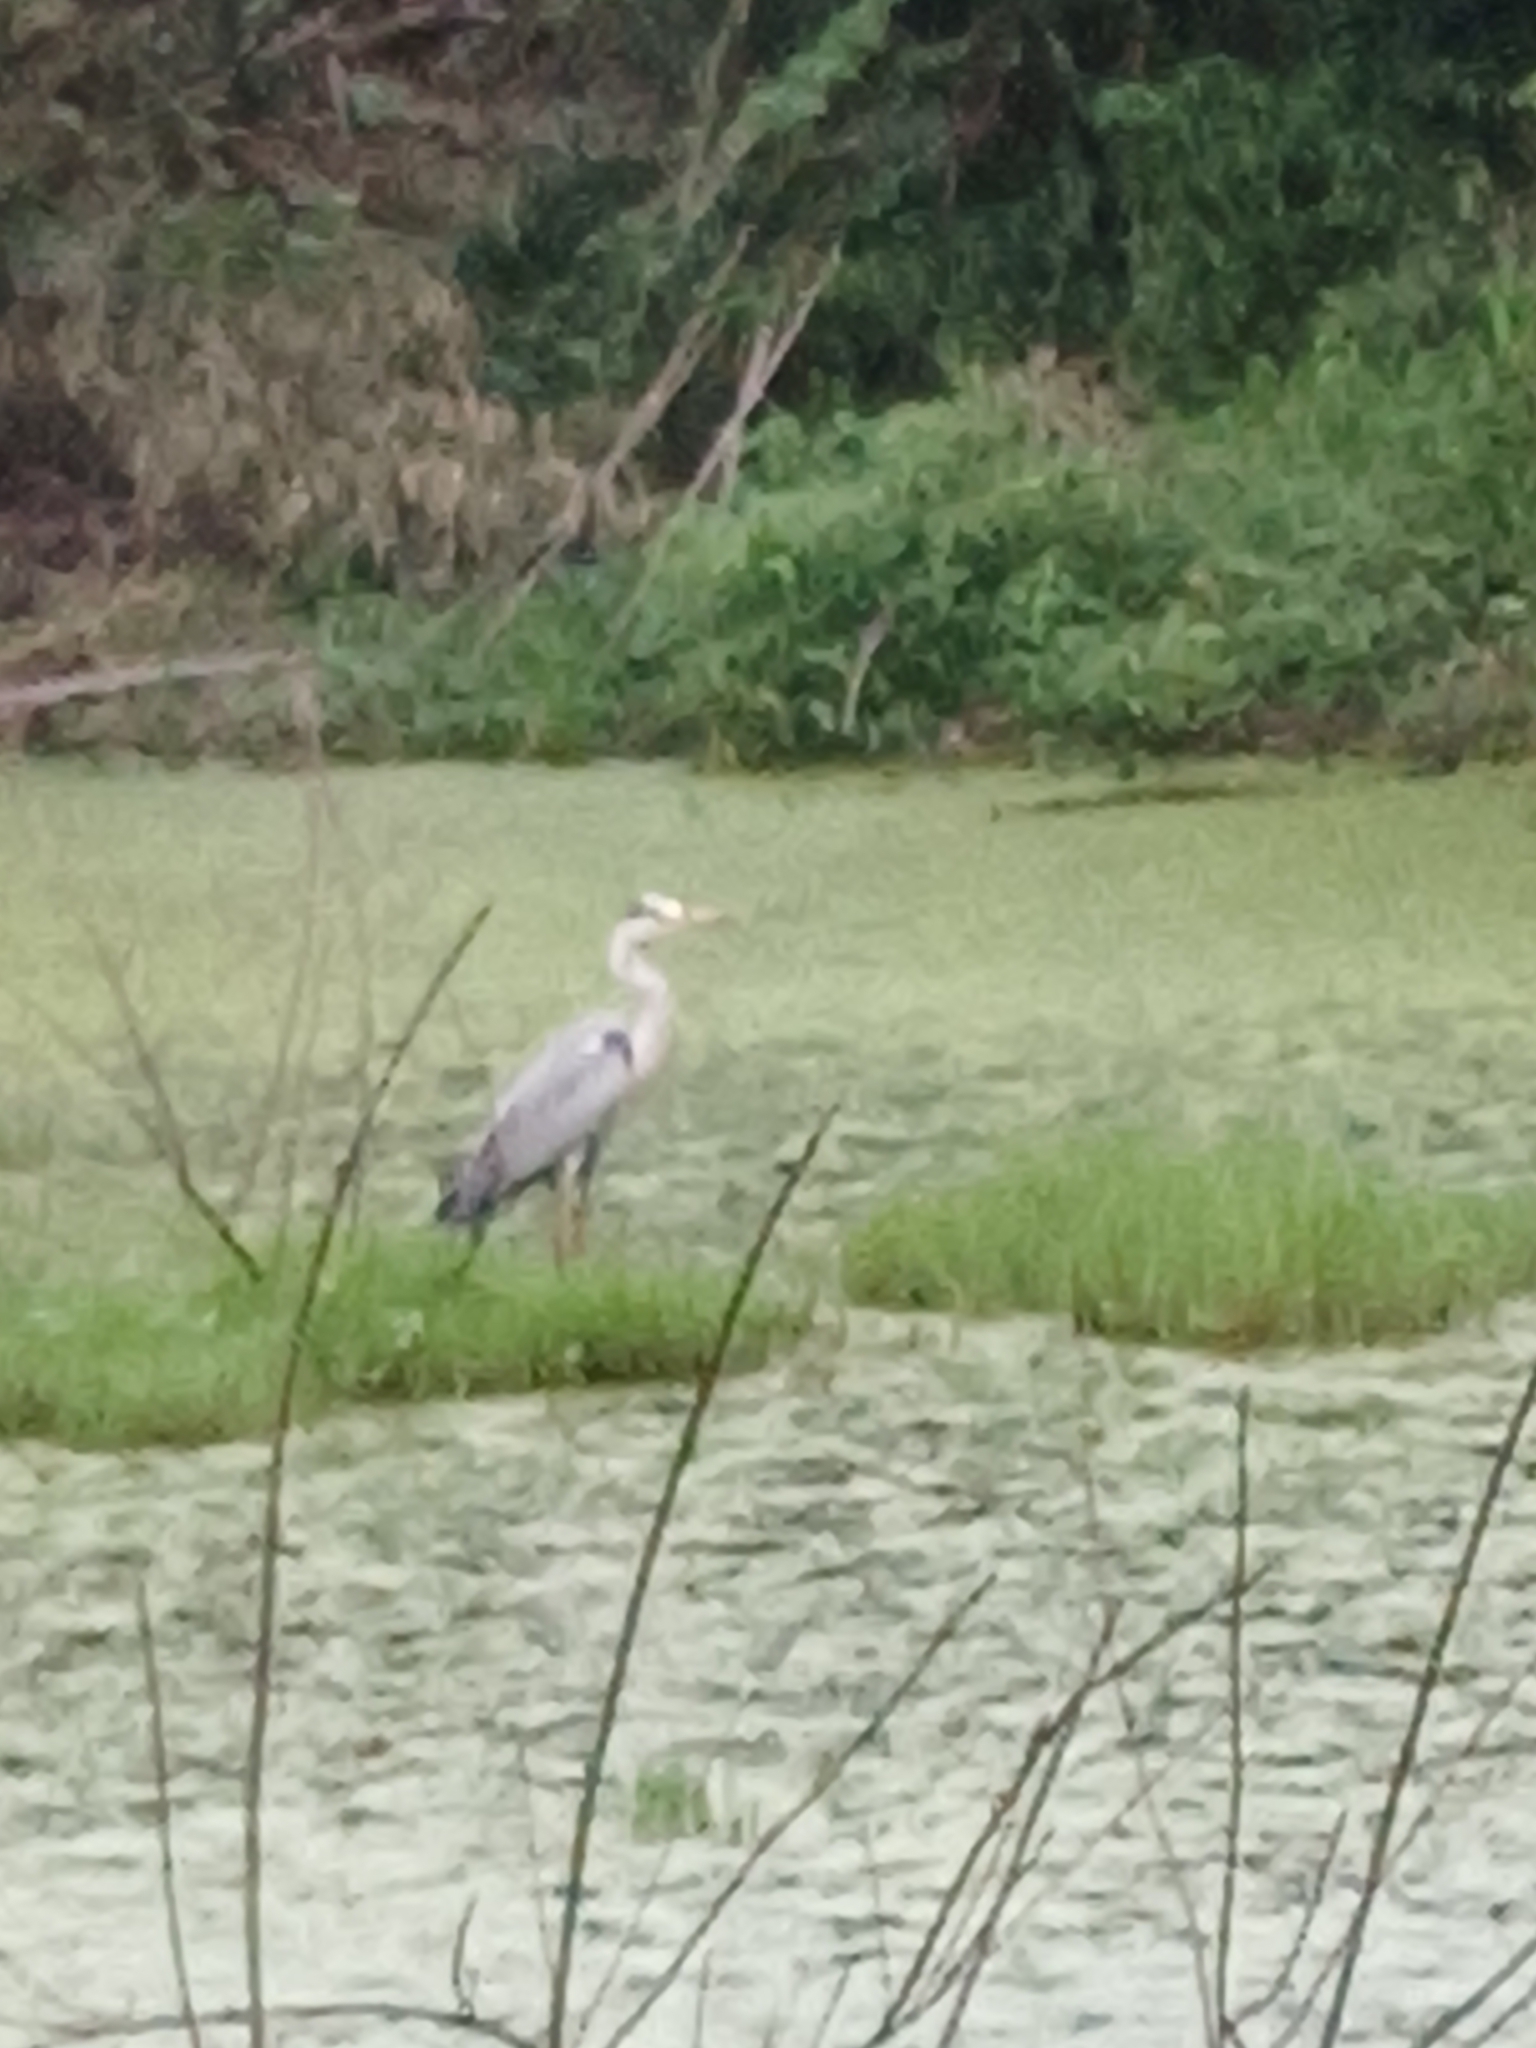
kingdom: Animalia
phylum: Chordata
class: Aves
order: Pelecaniformes
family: Ardeidae
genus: Ardea
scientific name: Ardea cinerea
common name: Grey heron
